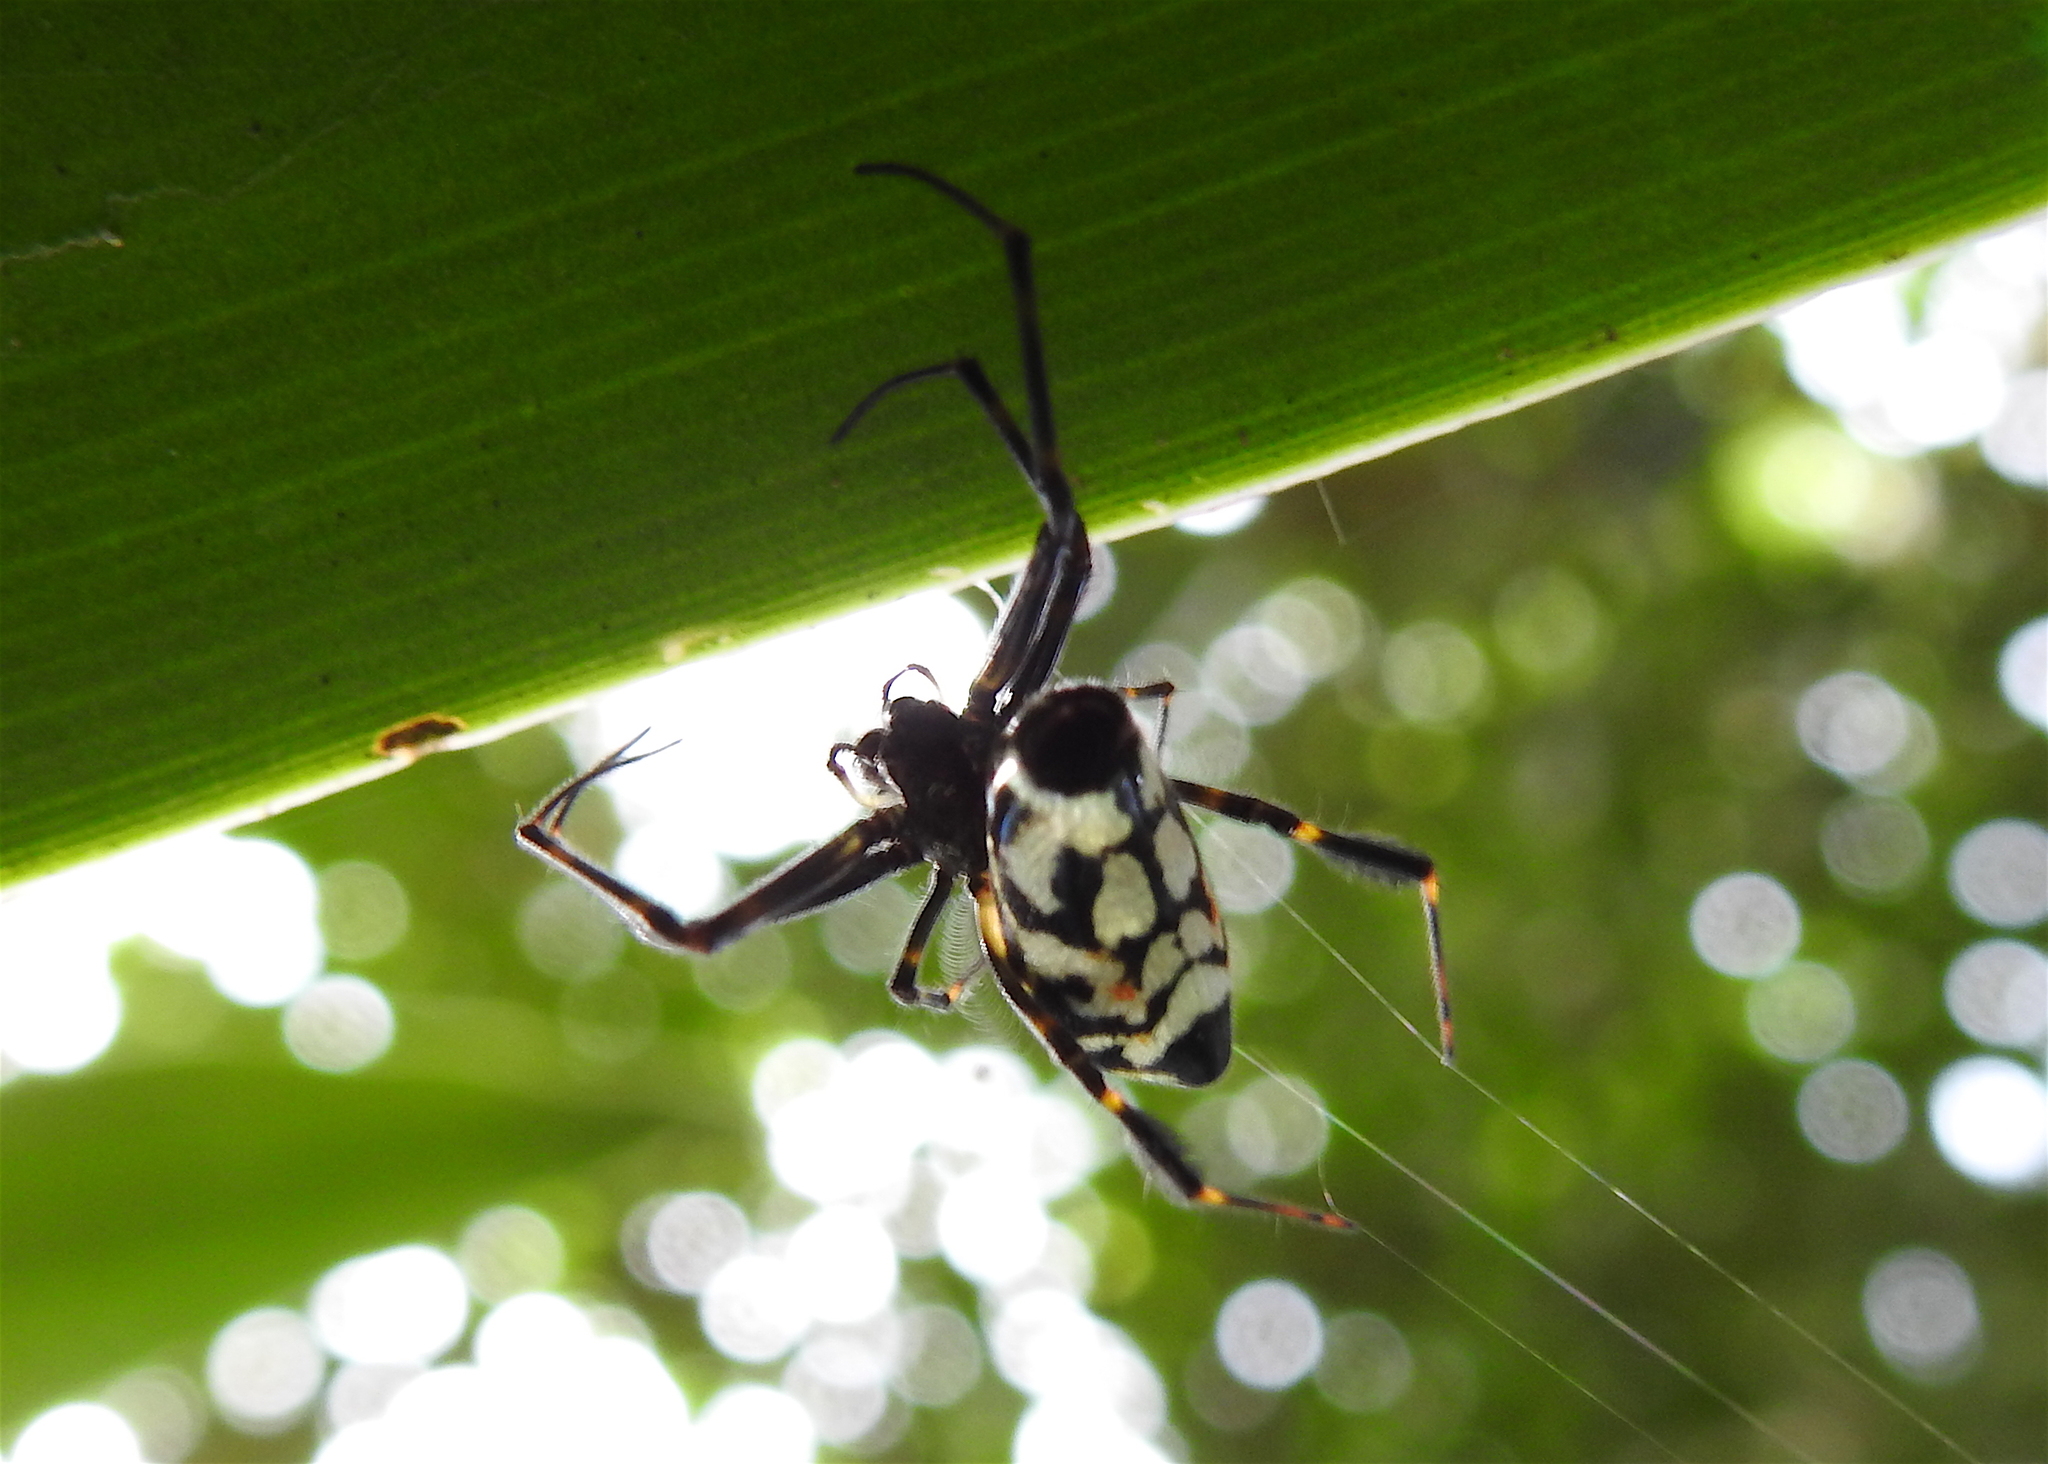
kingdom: Animalia
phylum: Arthropoda
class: Arachnida
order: Araneae
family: Tetragnathidae
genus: Leucauge
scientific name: Leucauge fastigata
